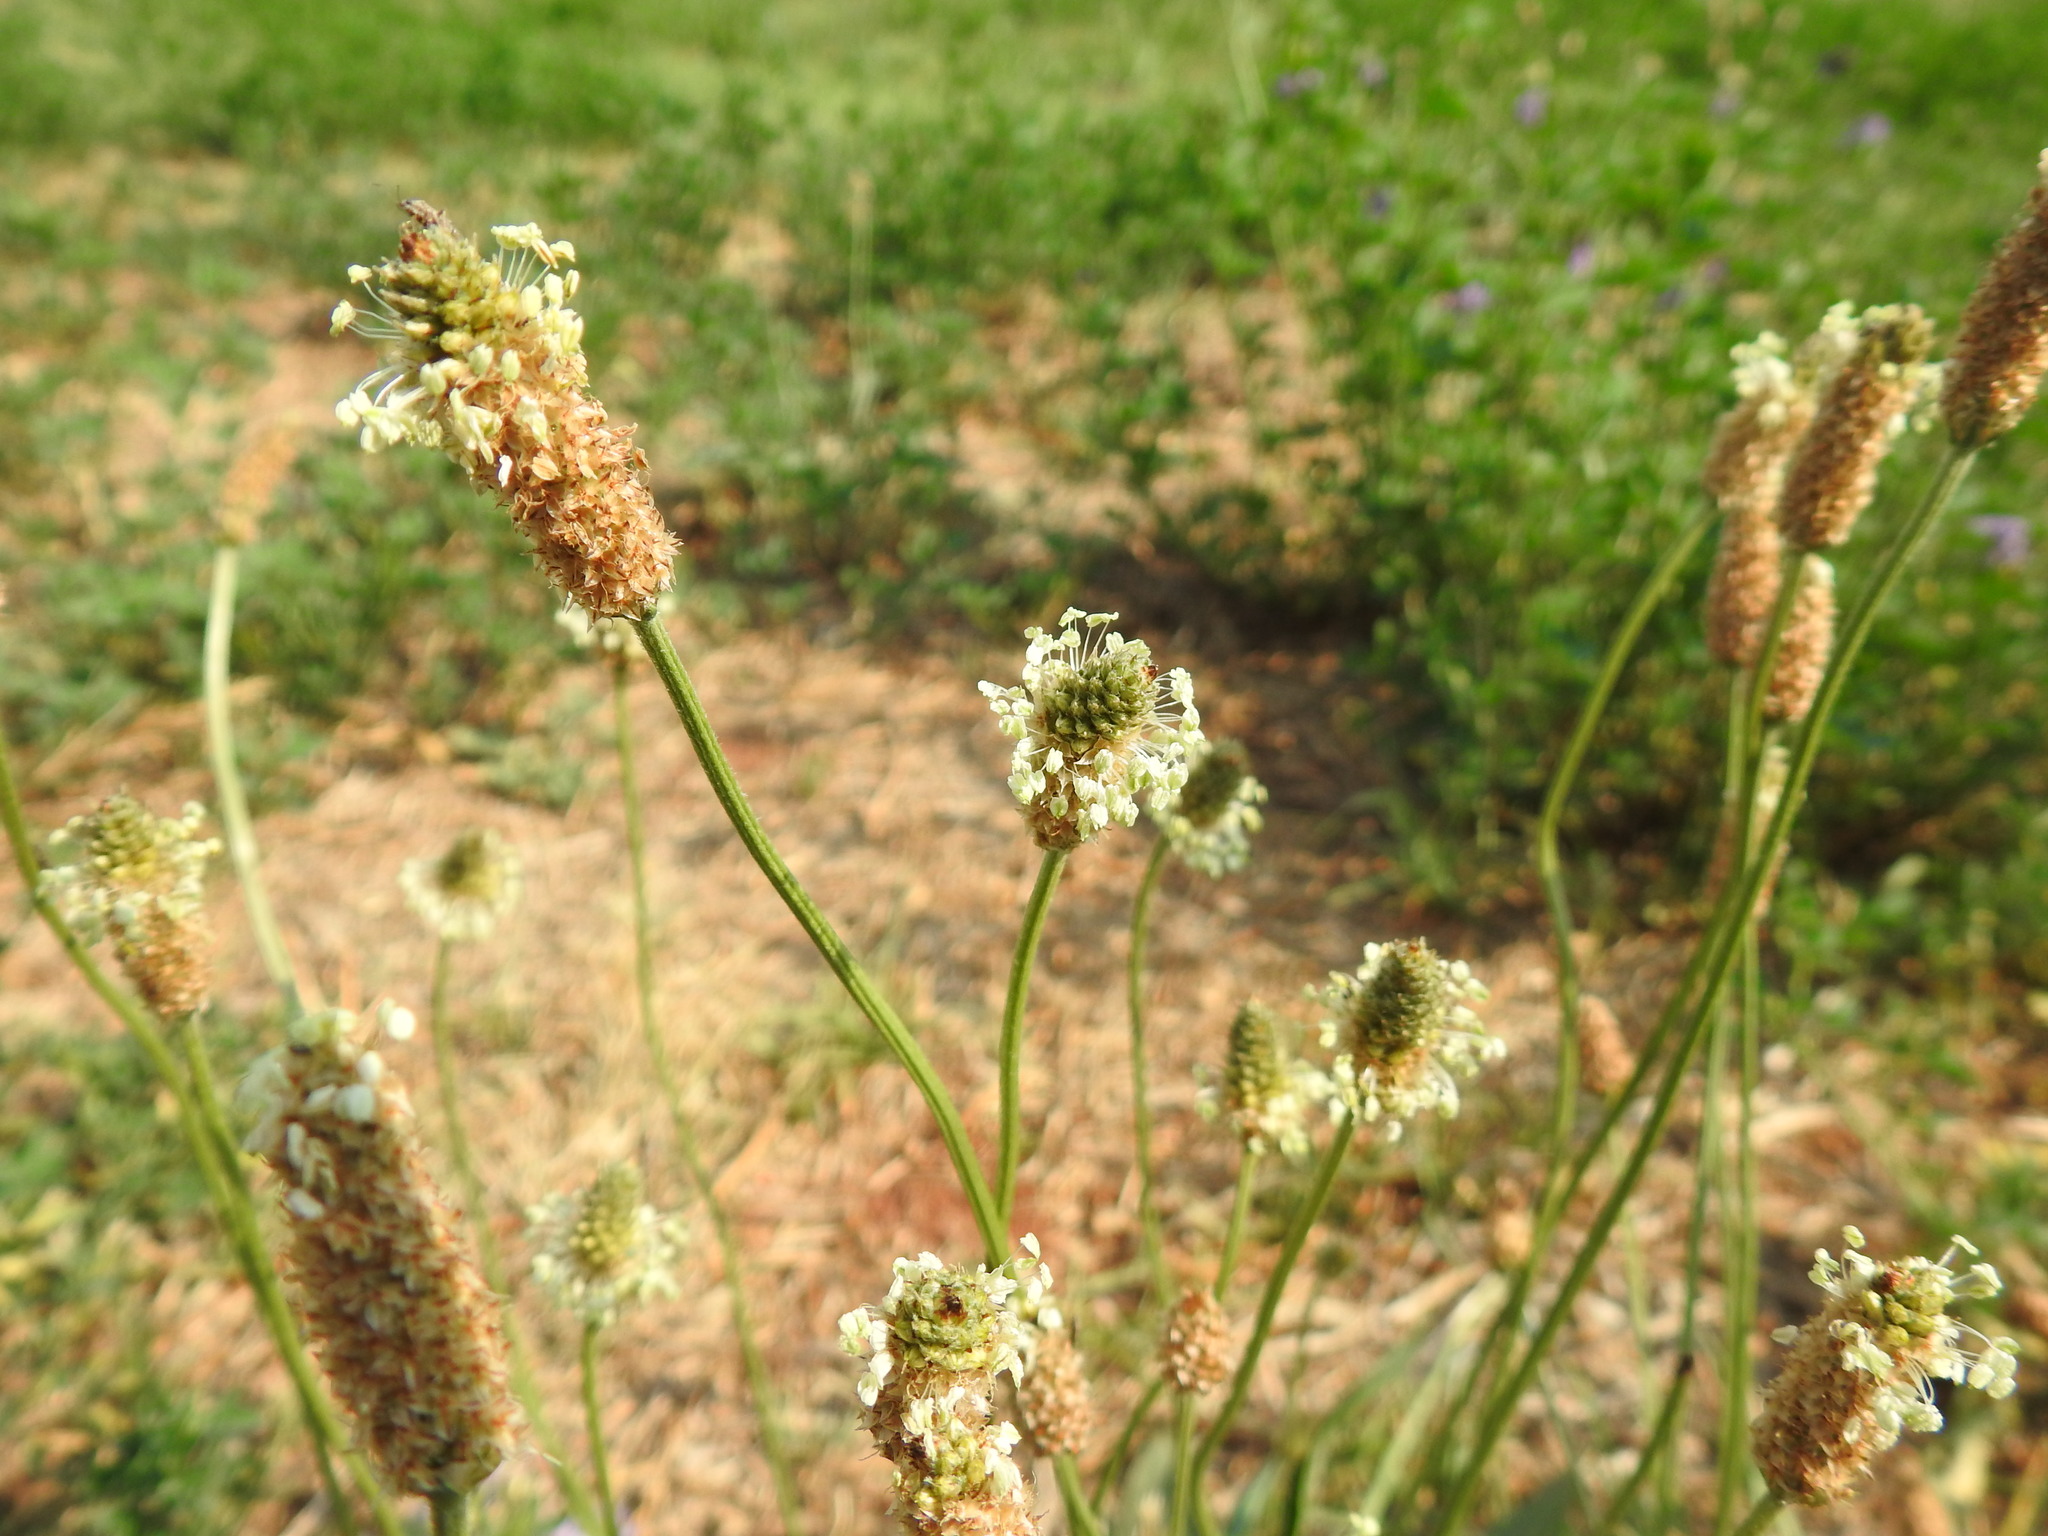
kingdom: Plantae
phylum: Tracheophyta
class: Magnoliopsida
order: Lamiales
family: Plantaginaceae
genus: Plantago
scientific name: Plantago lanceolata
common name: Ribwort plantain
